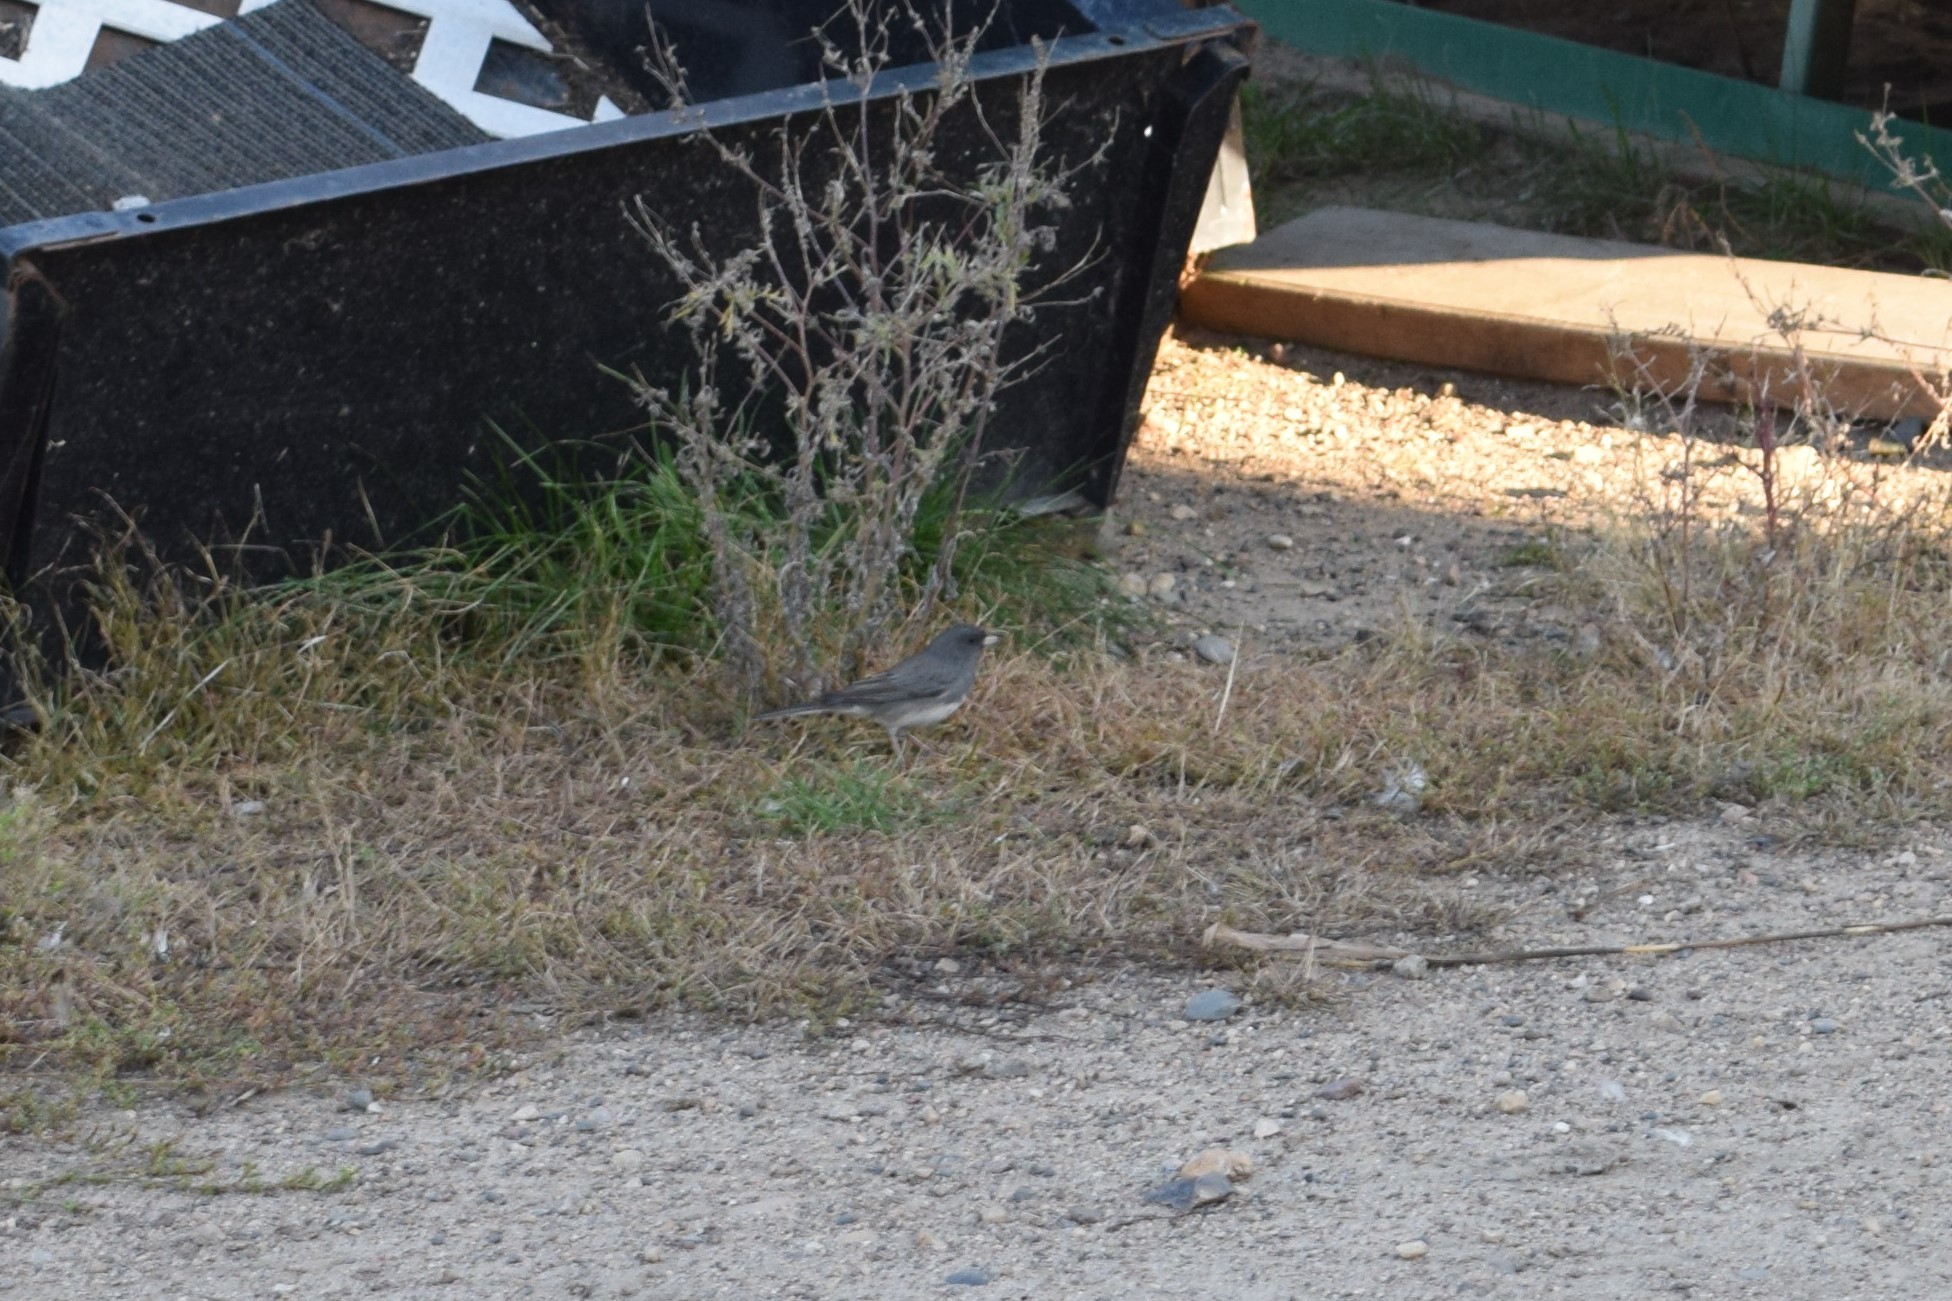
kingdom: Animalia
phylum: Chordata
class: Aves
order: Passeriformes
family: Passerellidae
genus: Junco
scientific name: Junco hyemalis
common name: Dark-eyed junco
